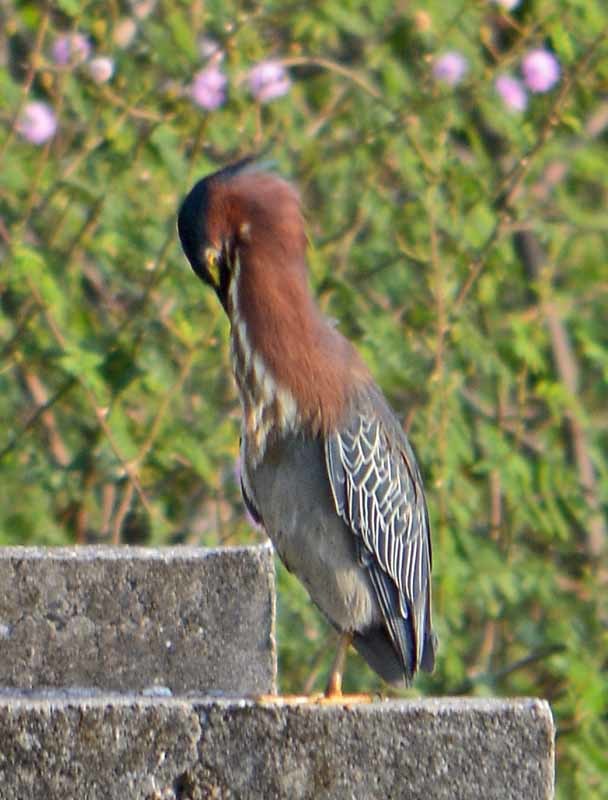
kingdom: Animalia
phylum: Chordata
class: Aves
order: Pelecaniformes
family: Ardeidae
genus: Butorides
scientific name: Butorides virescens
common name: Green heron
